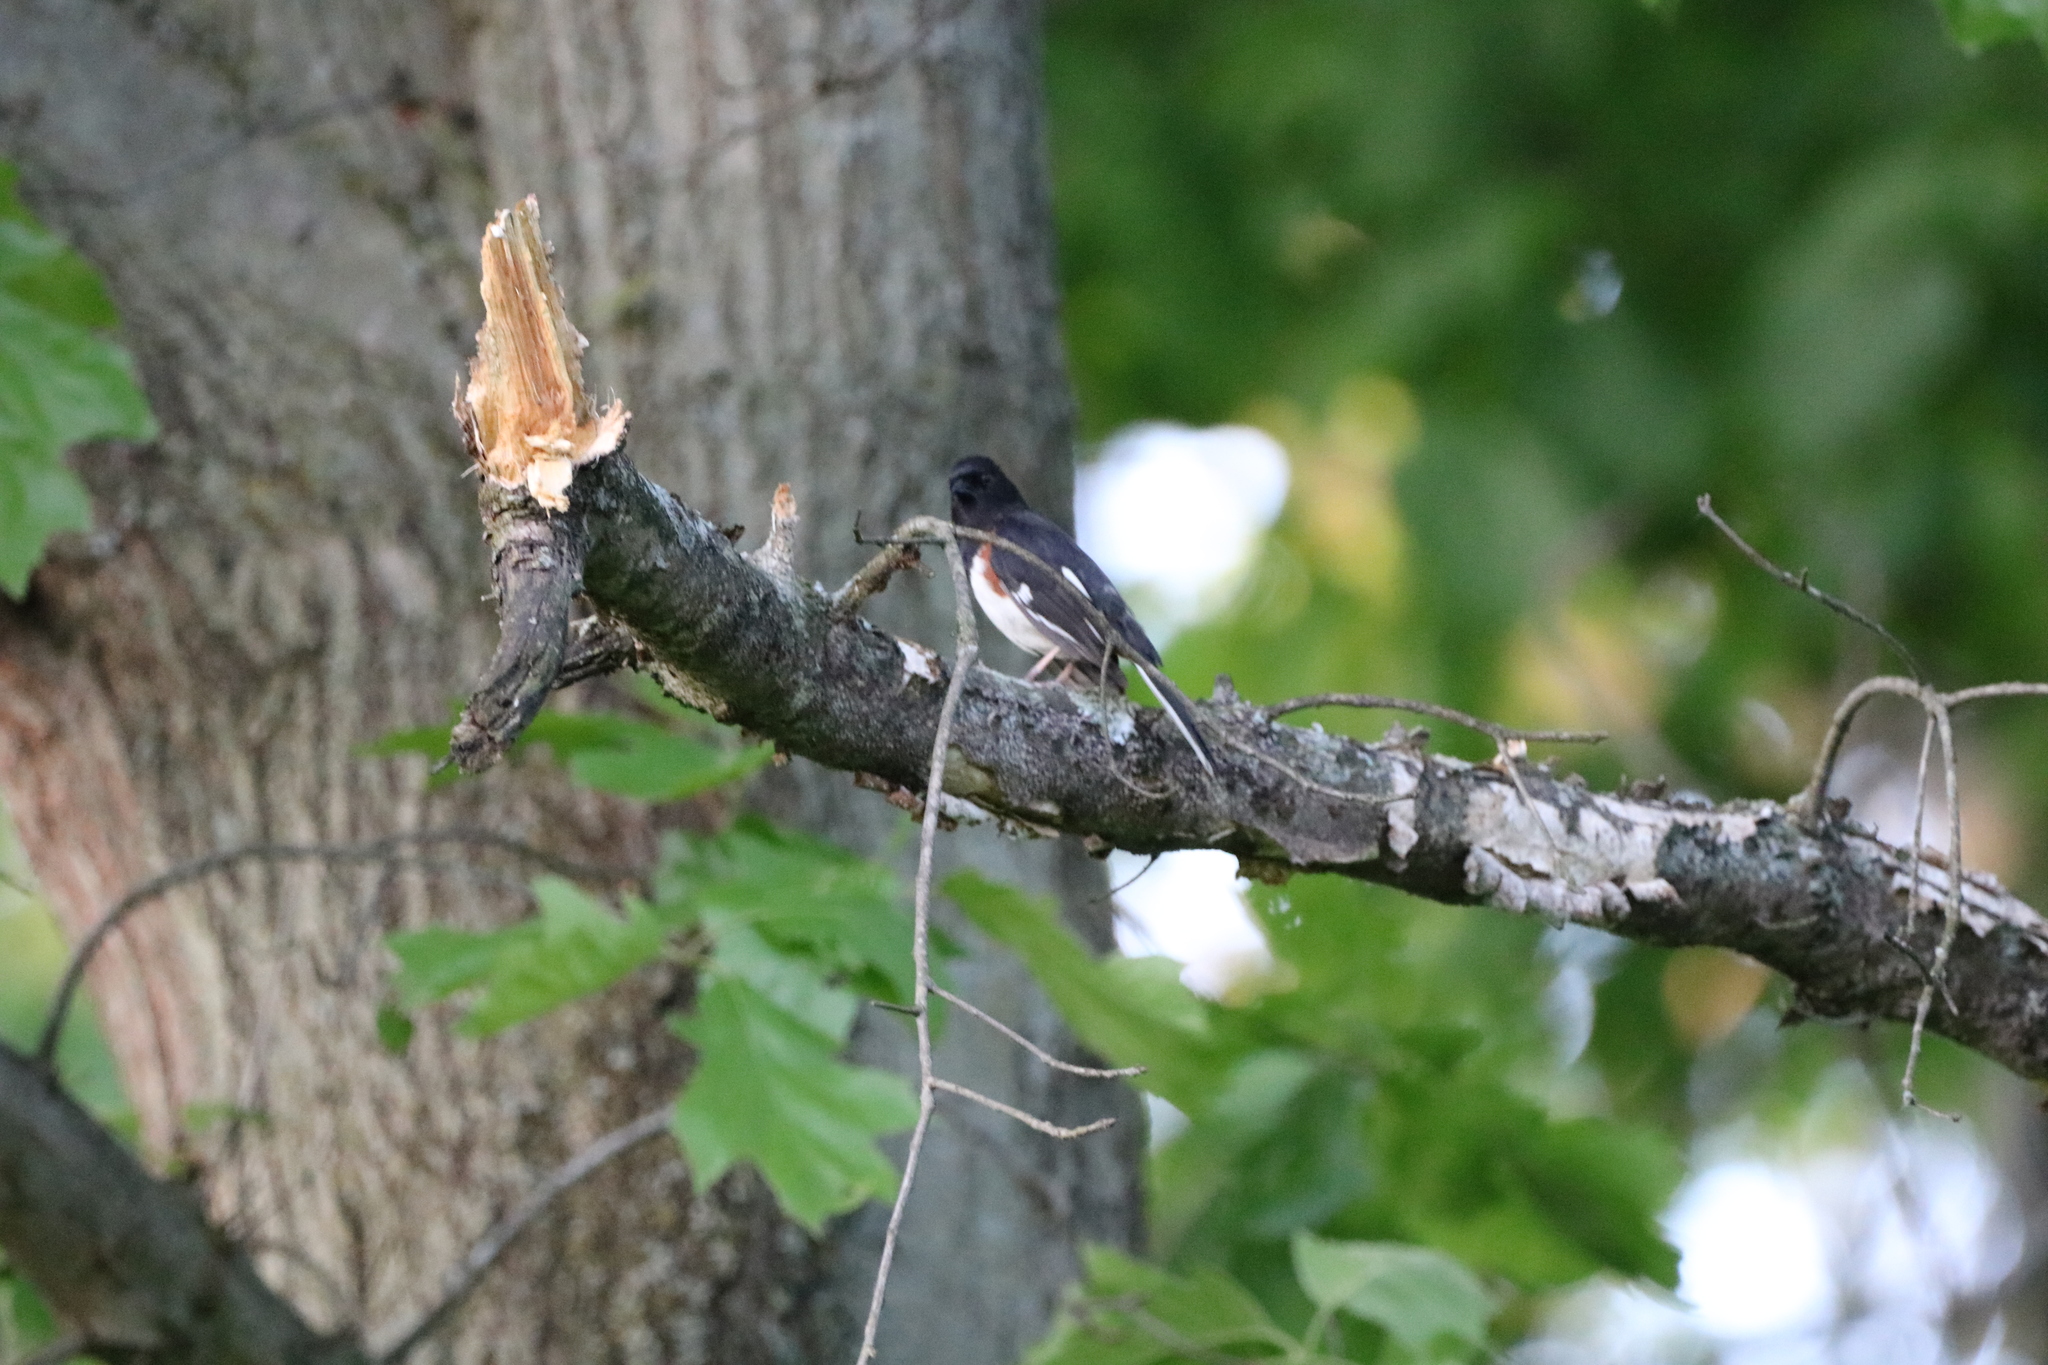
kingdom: Animalia
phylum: Chordata
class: Aves
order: Passeriformes
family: Passerellidae
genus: Pipilo
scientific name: Pipilo erythrophthalmus
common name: Eastern towhee
